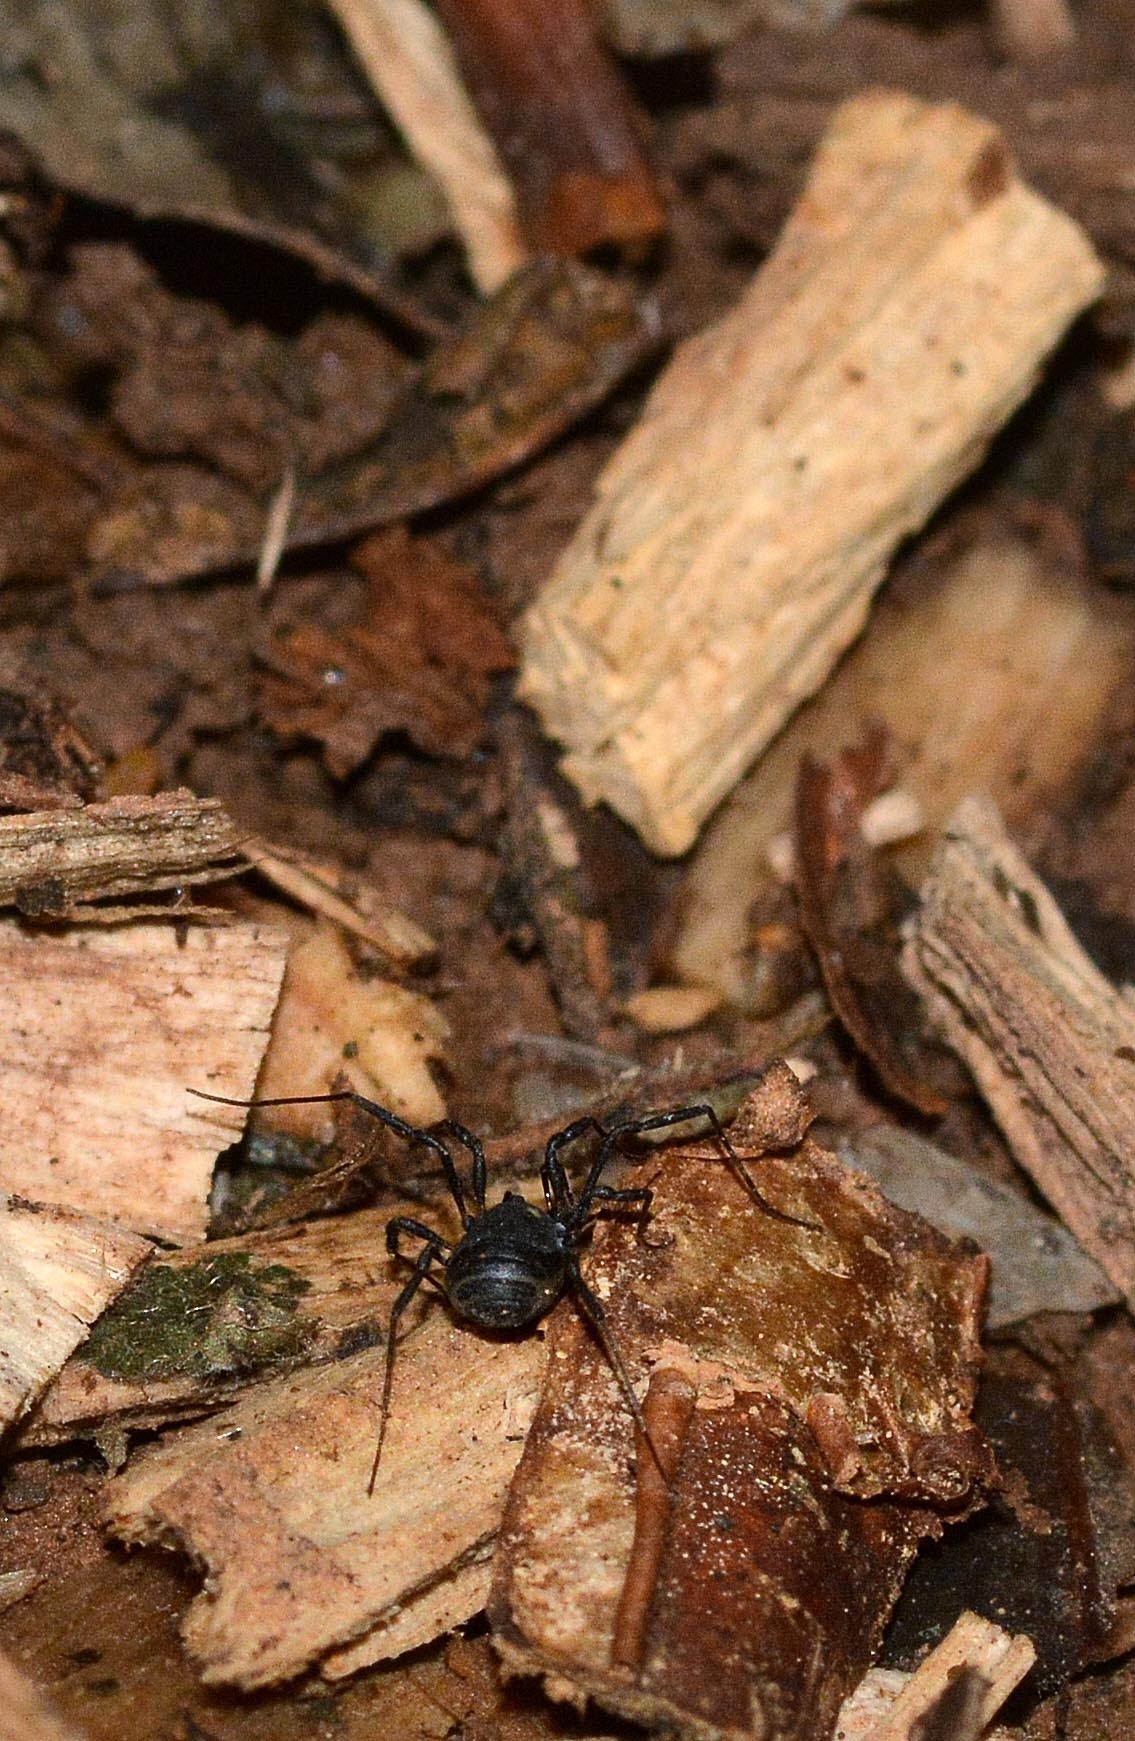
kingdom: Animalia
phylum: Arthropoda
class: Arachnida
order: Opiliones
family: Nemastomatidae
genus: Nemastoma
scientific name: Nemastoma bimaculatum
